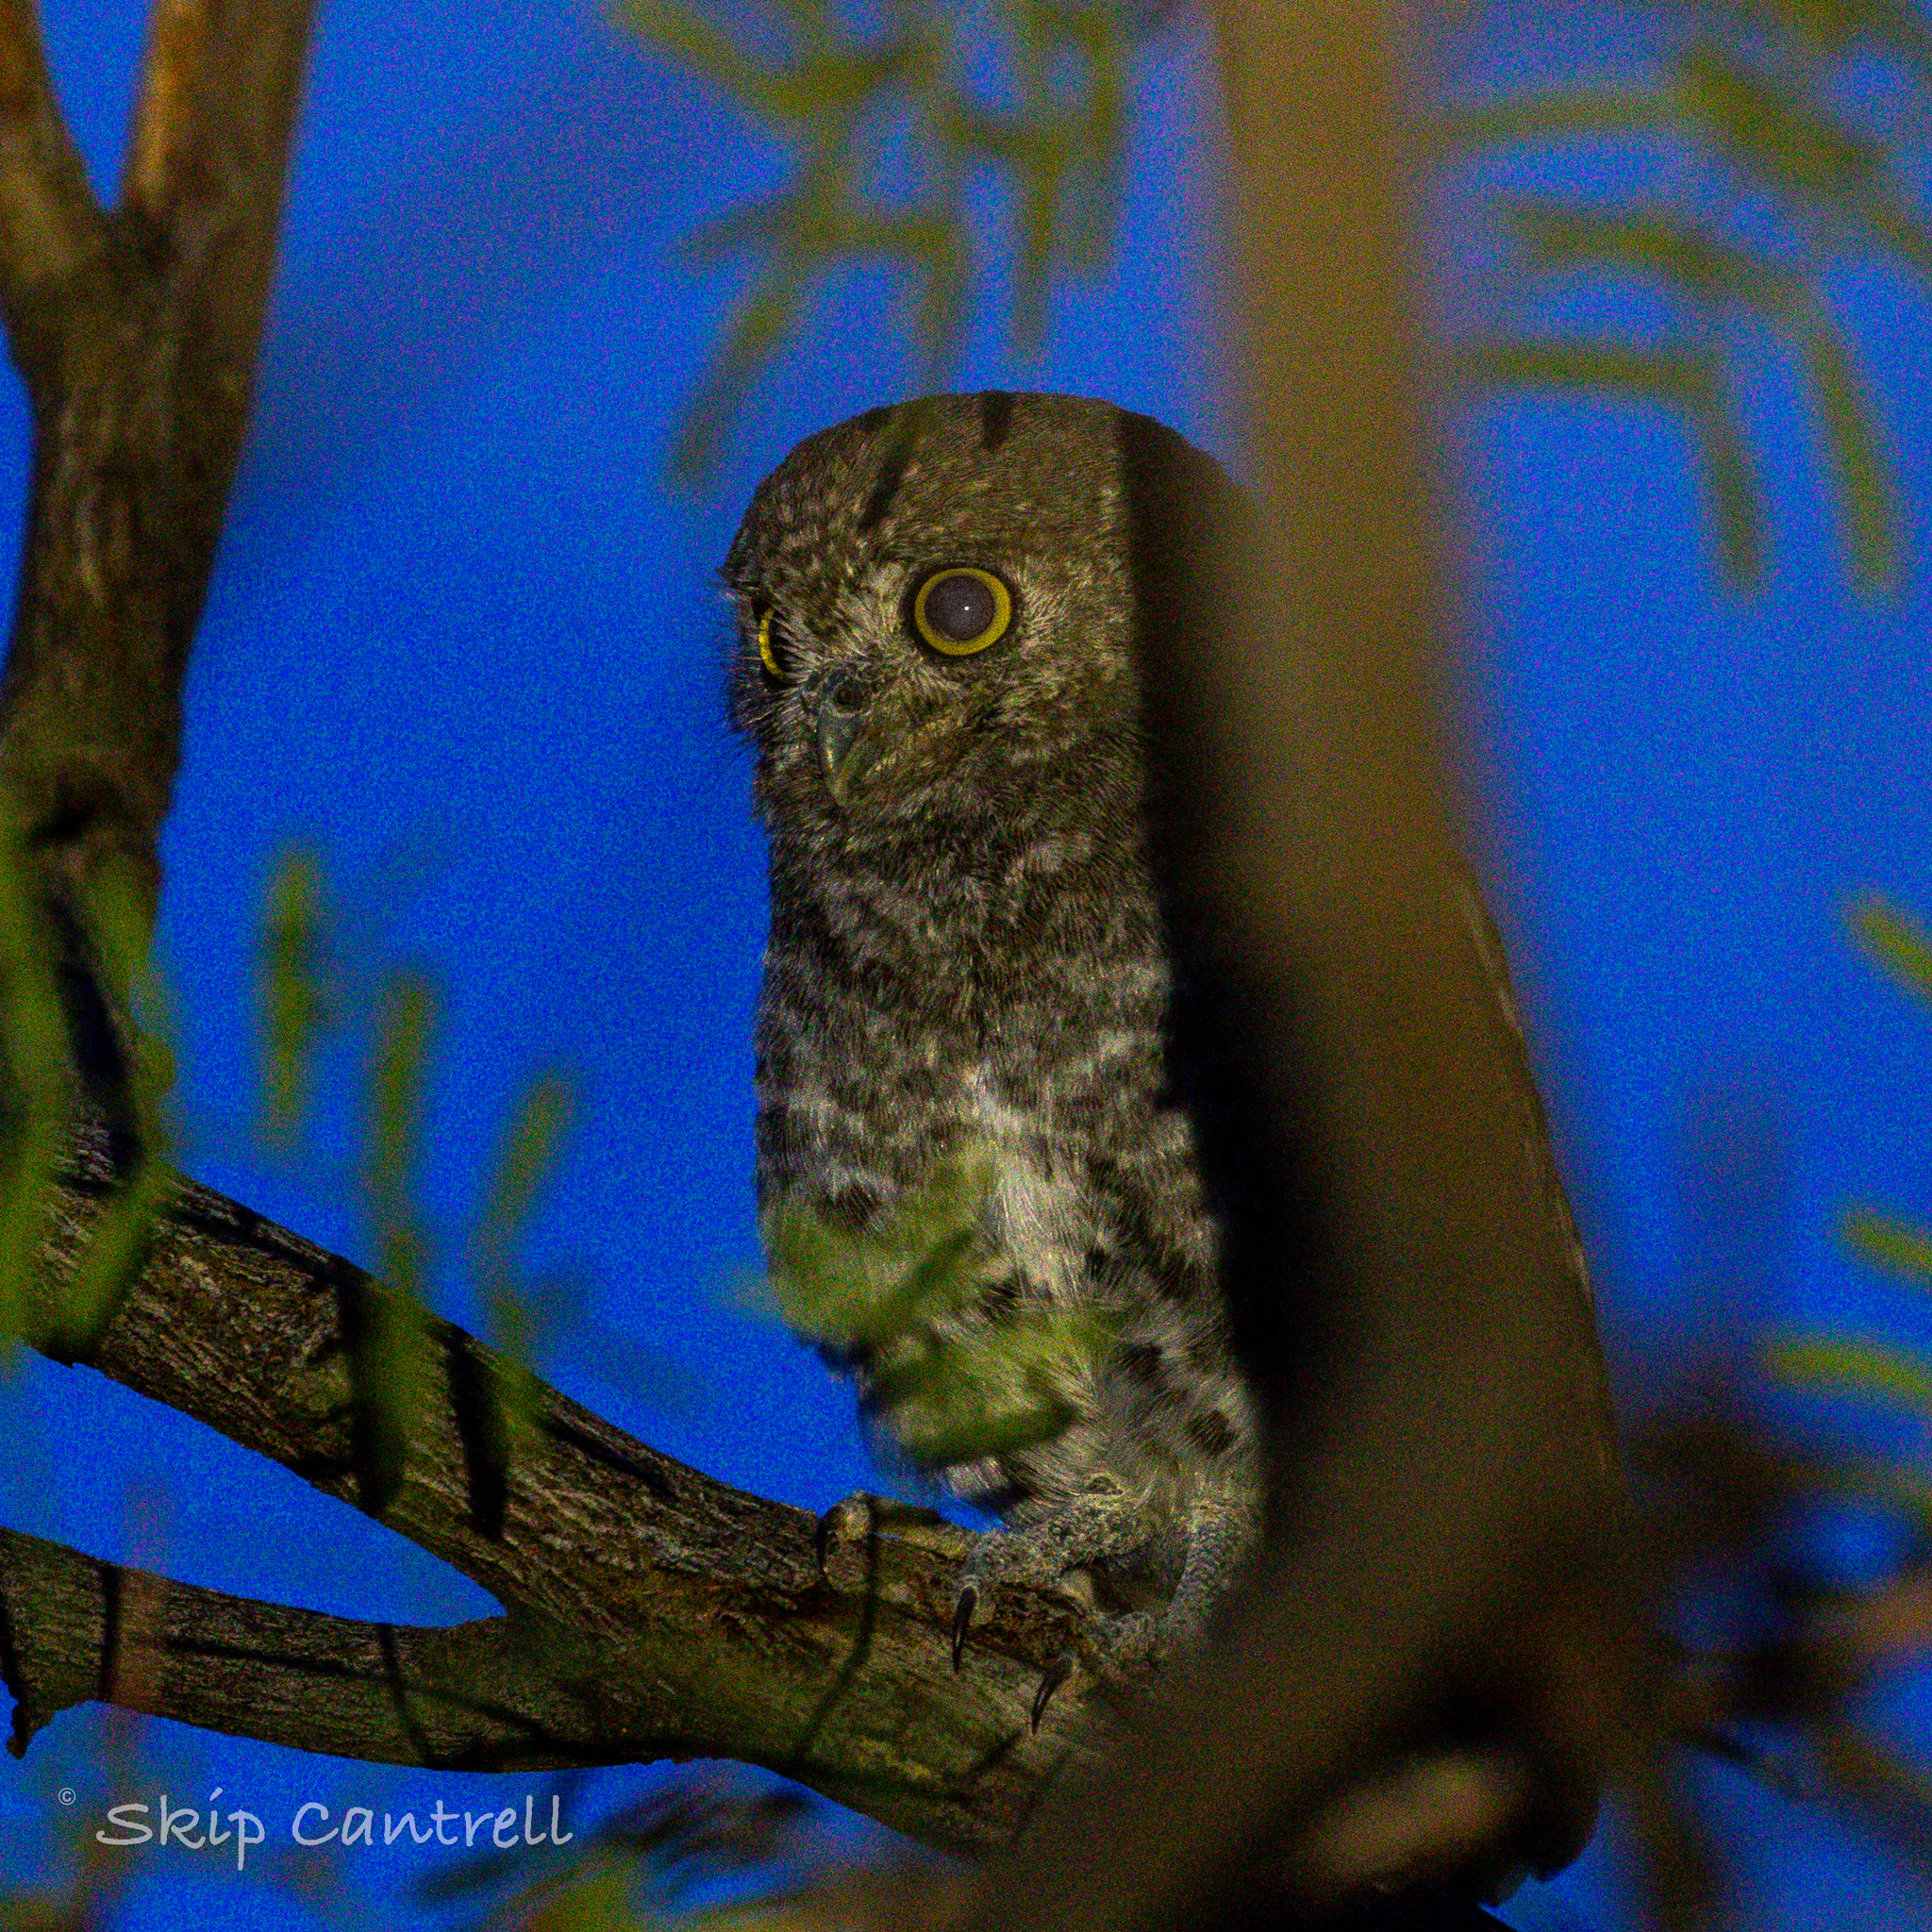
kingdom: Animalia
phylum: Chordata
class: Aves
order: Strigiformes
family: Strigidae
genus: Micrathene
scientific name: Micrathene whitneyi
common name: Elf owl
